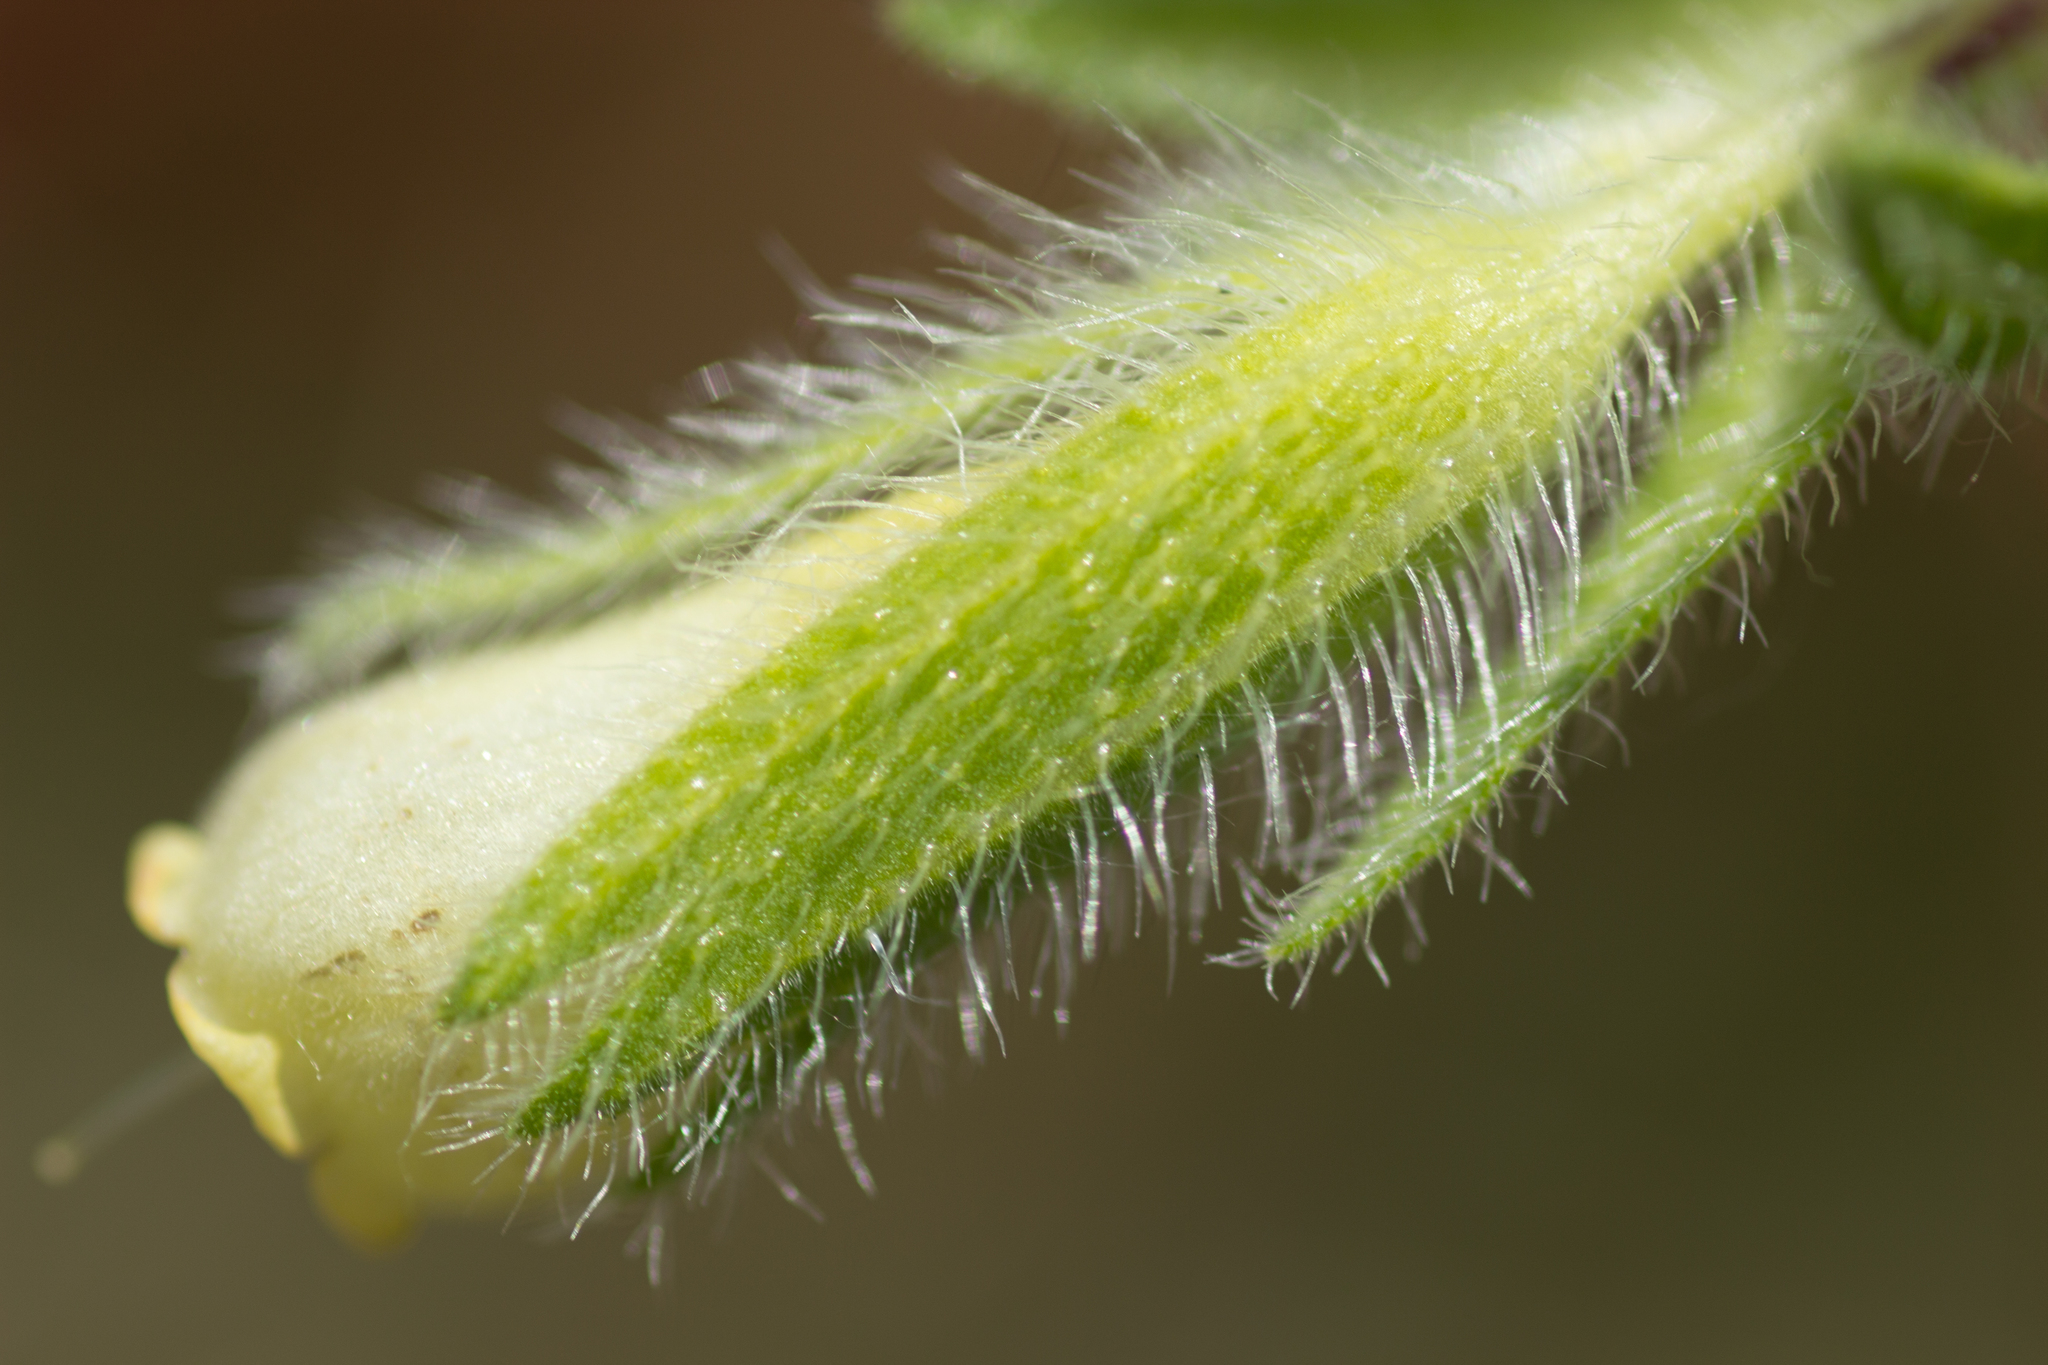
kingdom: Plantae
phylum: Tracheophyta
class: Magnoliopsida
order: Boraginales
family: Boraginaceae
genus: Onosma
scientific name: Onosma visianii
